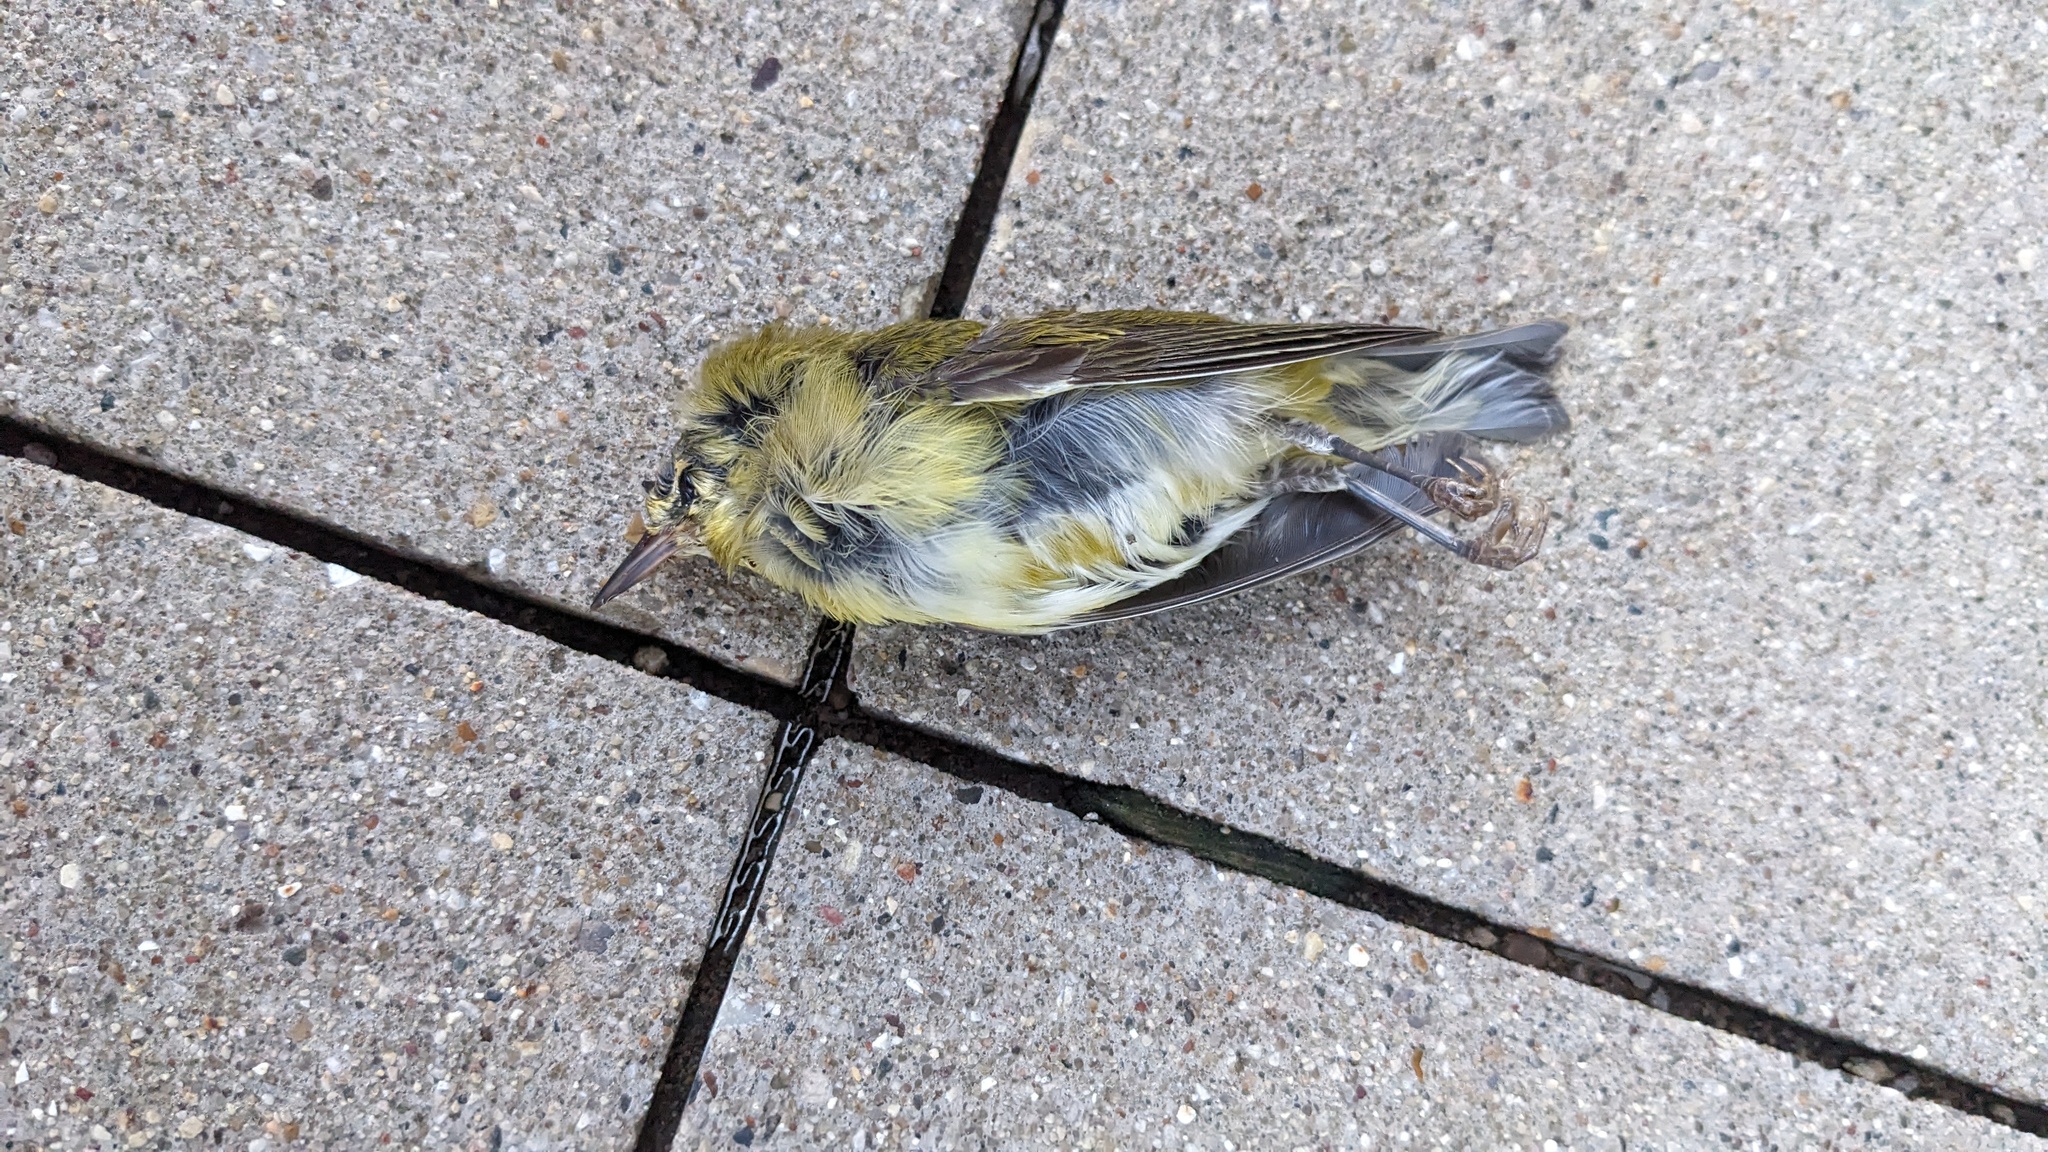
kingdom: Animalia
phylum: Chordata
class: Aves
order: Passeriformes
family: Parulidae
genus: Leiothlypis
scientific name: Leiothlypis peregrina
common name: Tennessee warbler
